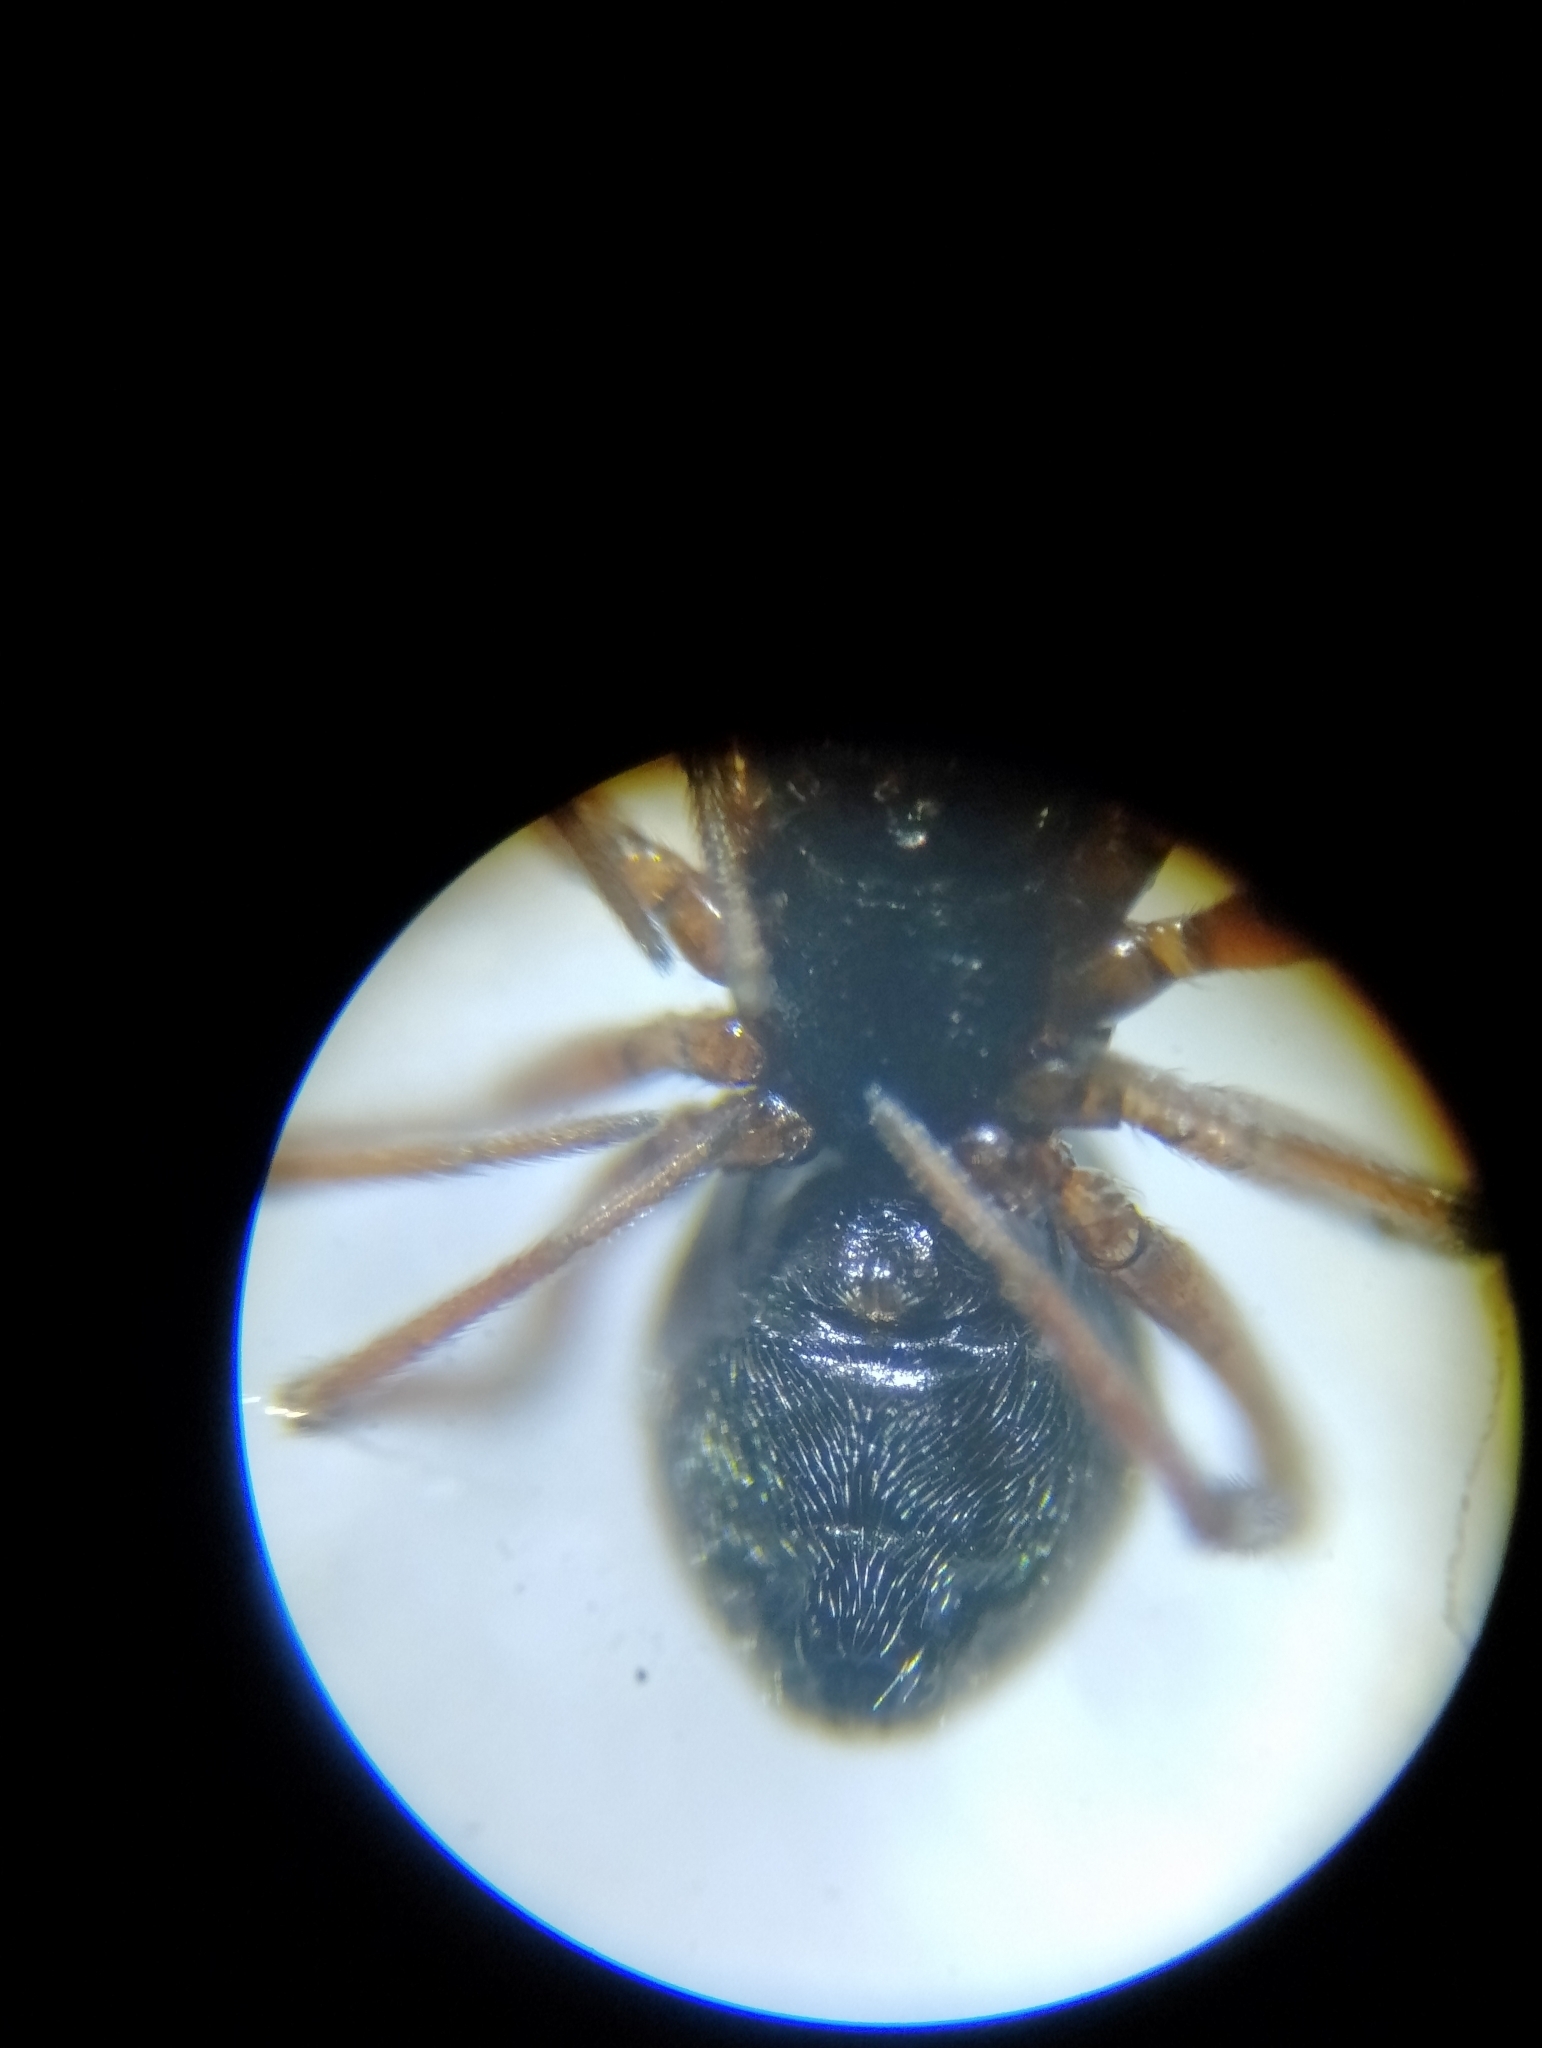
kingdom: Animalia
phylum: Arthropoda
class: Arachnida
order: Araneae
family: Linyphiidae
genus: Dicymbium
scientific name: Dicymbium nigrum
